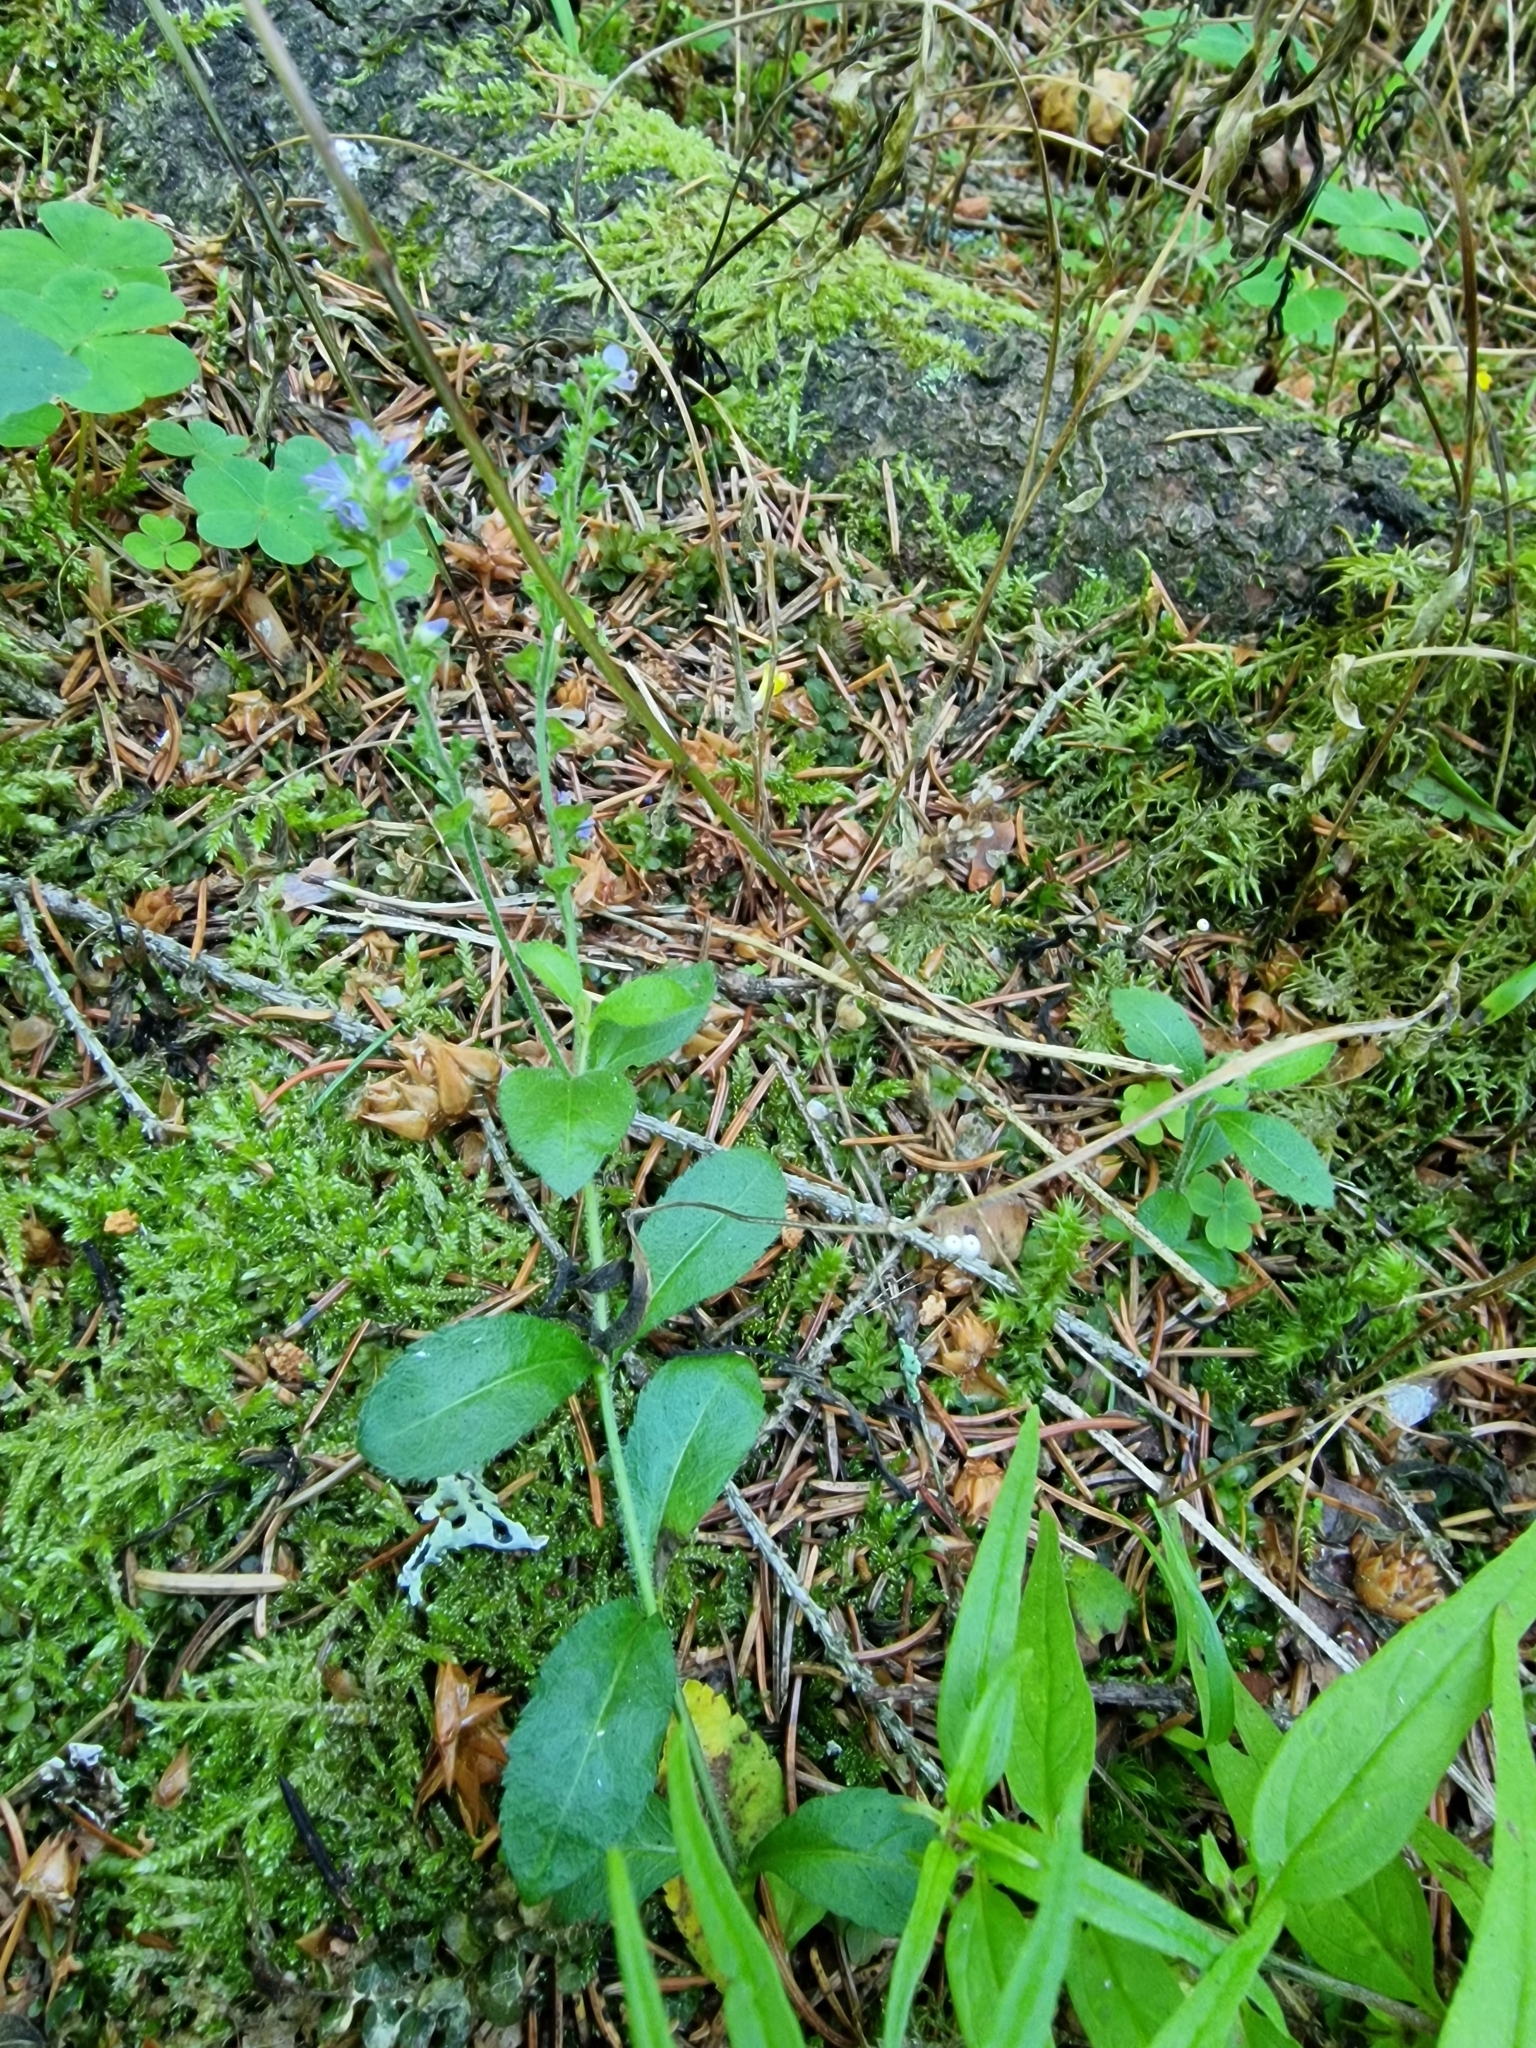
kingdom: Plantae
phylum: Tracheophyta
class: Magnoliopsida
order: Lamiales
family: Plantaginaceae
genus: Veronica
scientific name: Veronica officinalis
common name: Common speedwell
